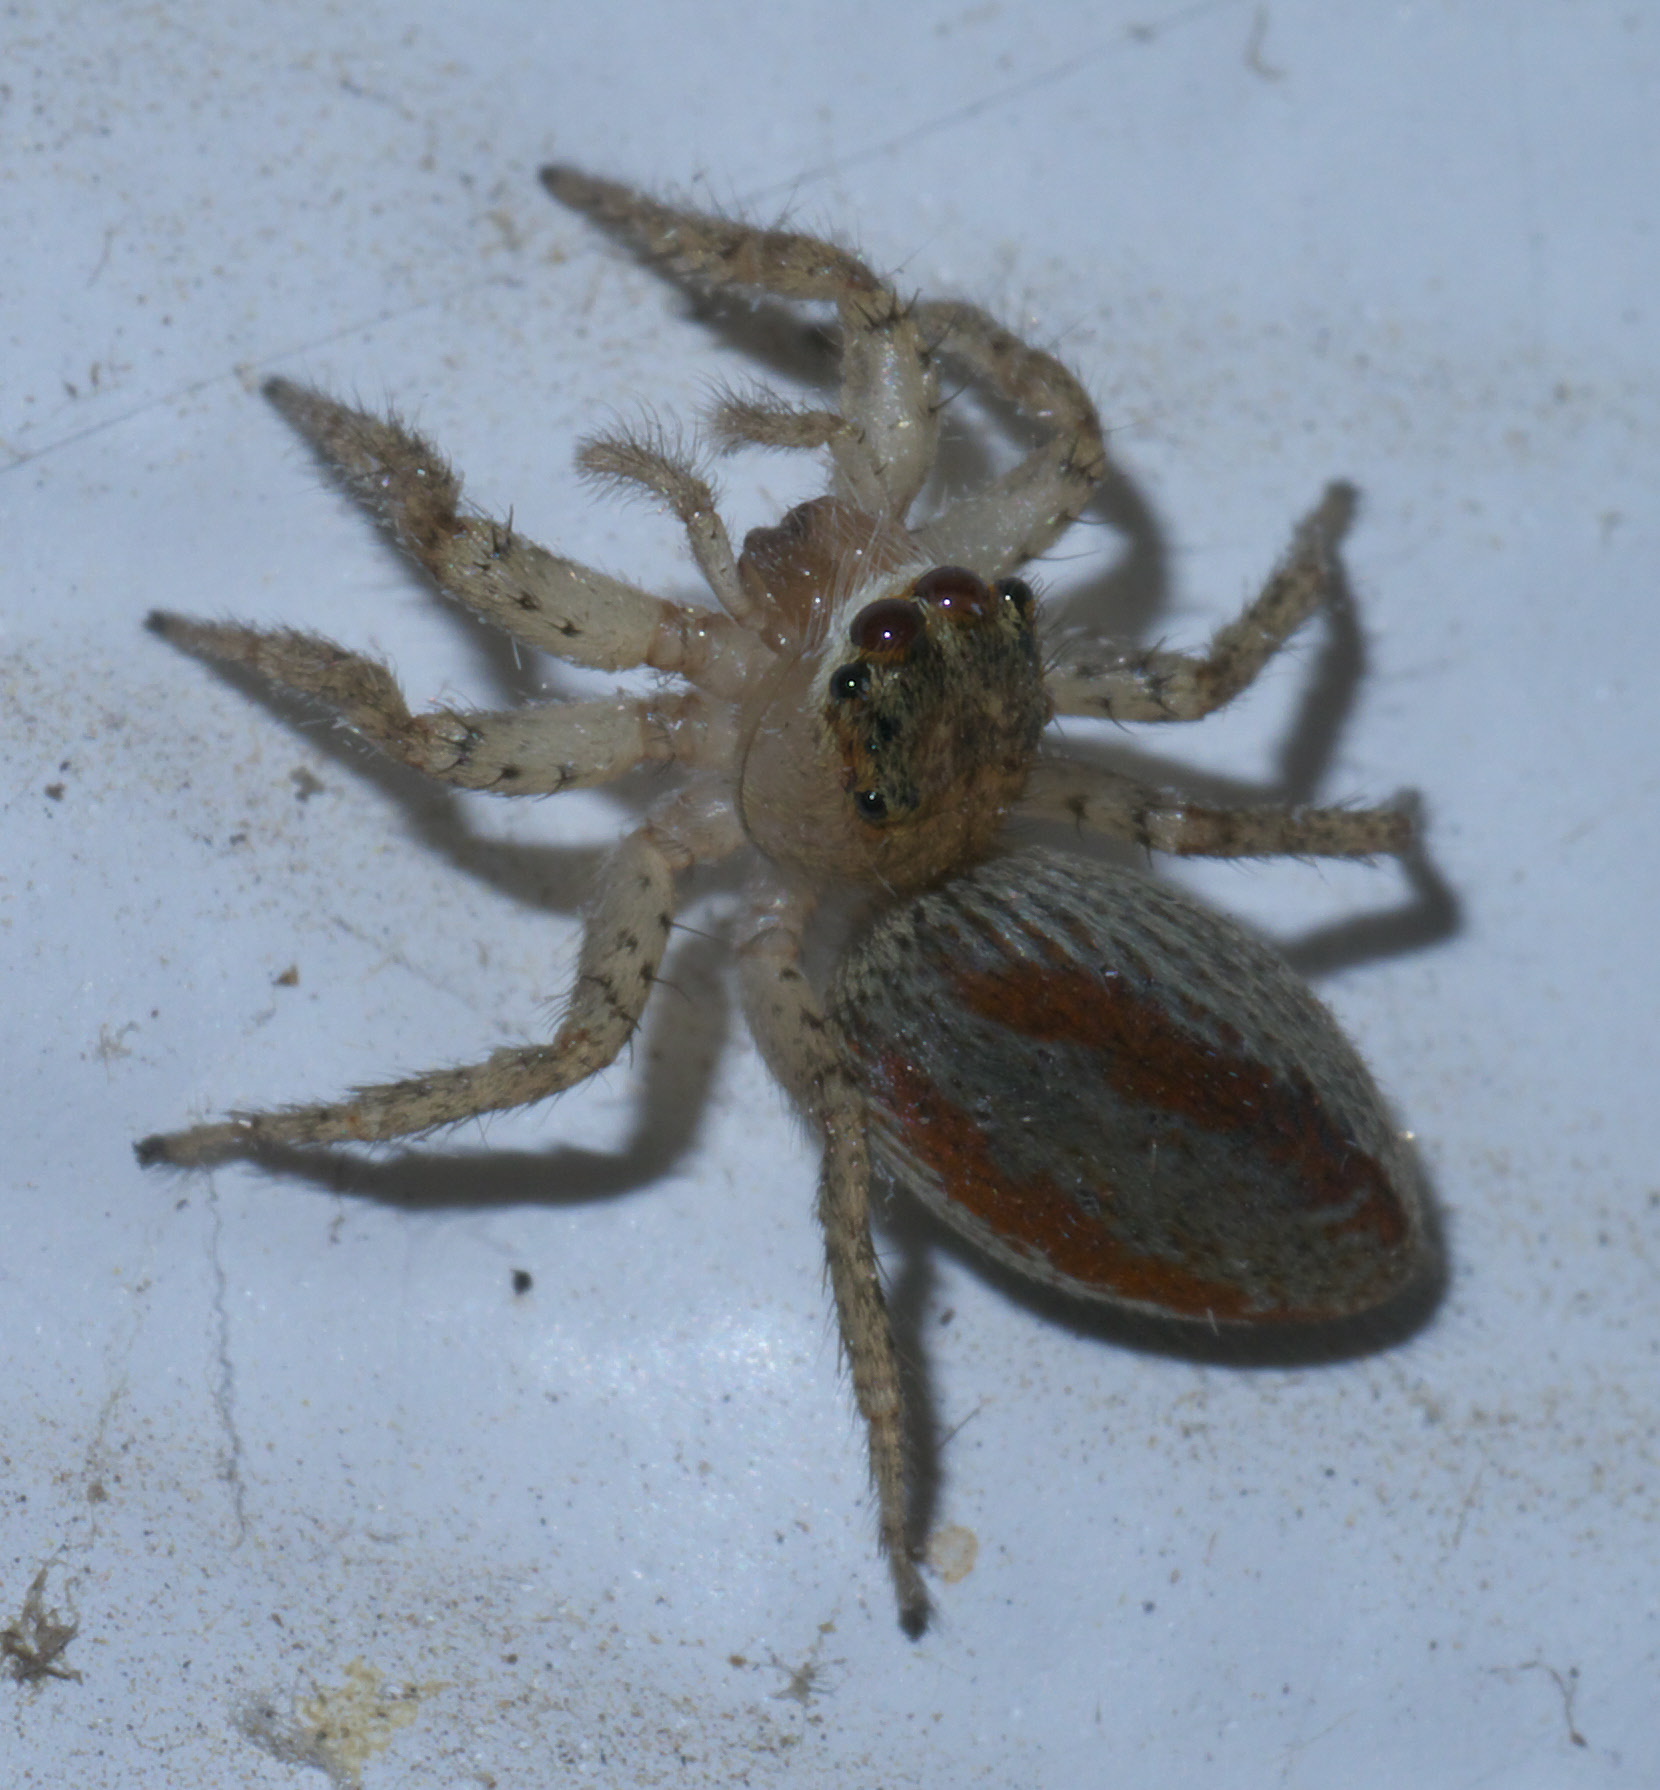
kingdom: Animalia
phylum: Arthropoda
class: Arachnida
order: Araneae
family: Salticidae
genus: Maevia
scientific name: Maevia inclemens
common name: Dimorphic jumper
